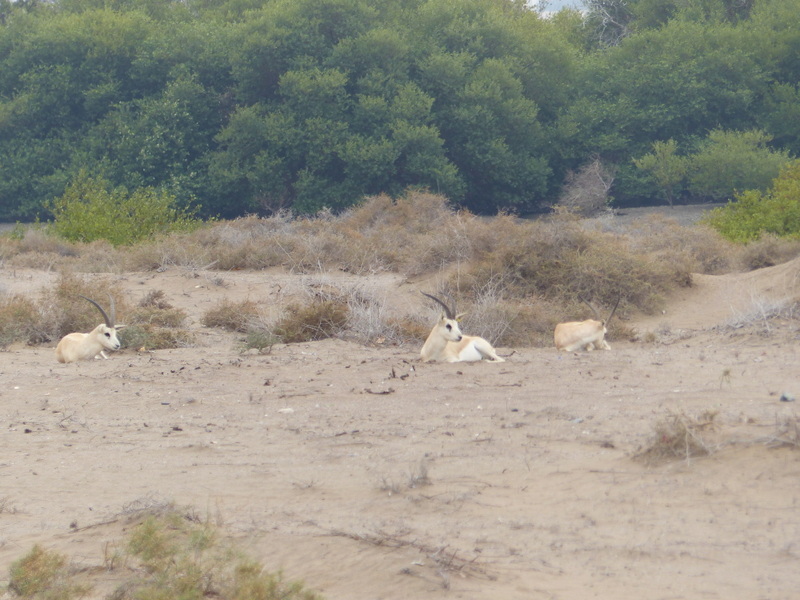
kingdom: Animalia
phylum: Chordata
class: Mammalia
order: Artiodactyla
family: Bovidae
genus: Gazella
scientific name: Gazella marica
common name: Arabian sand gazelle
